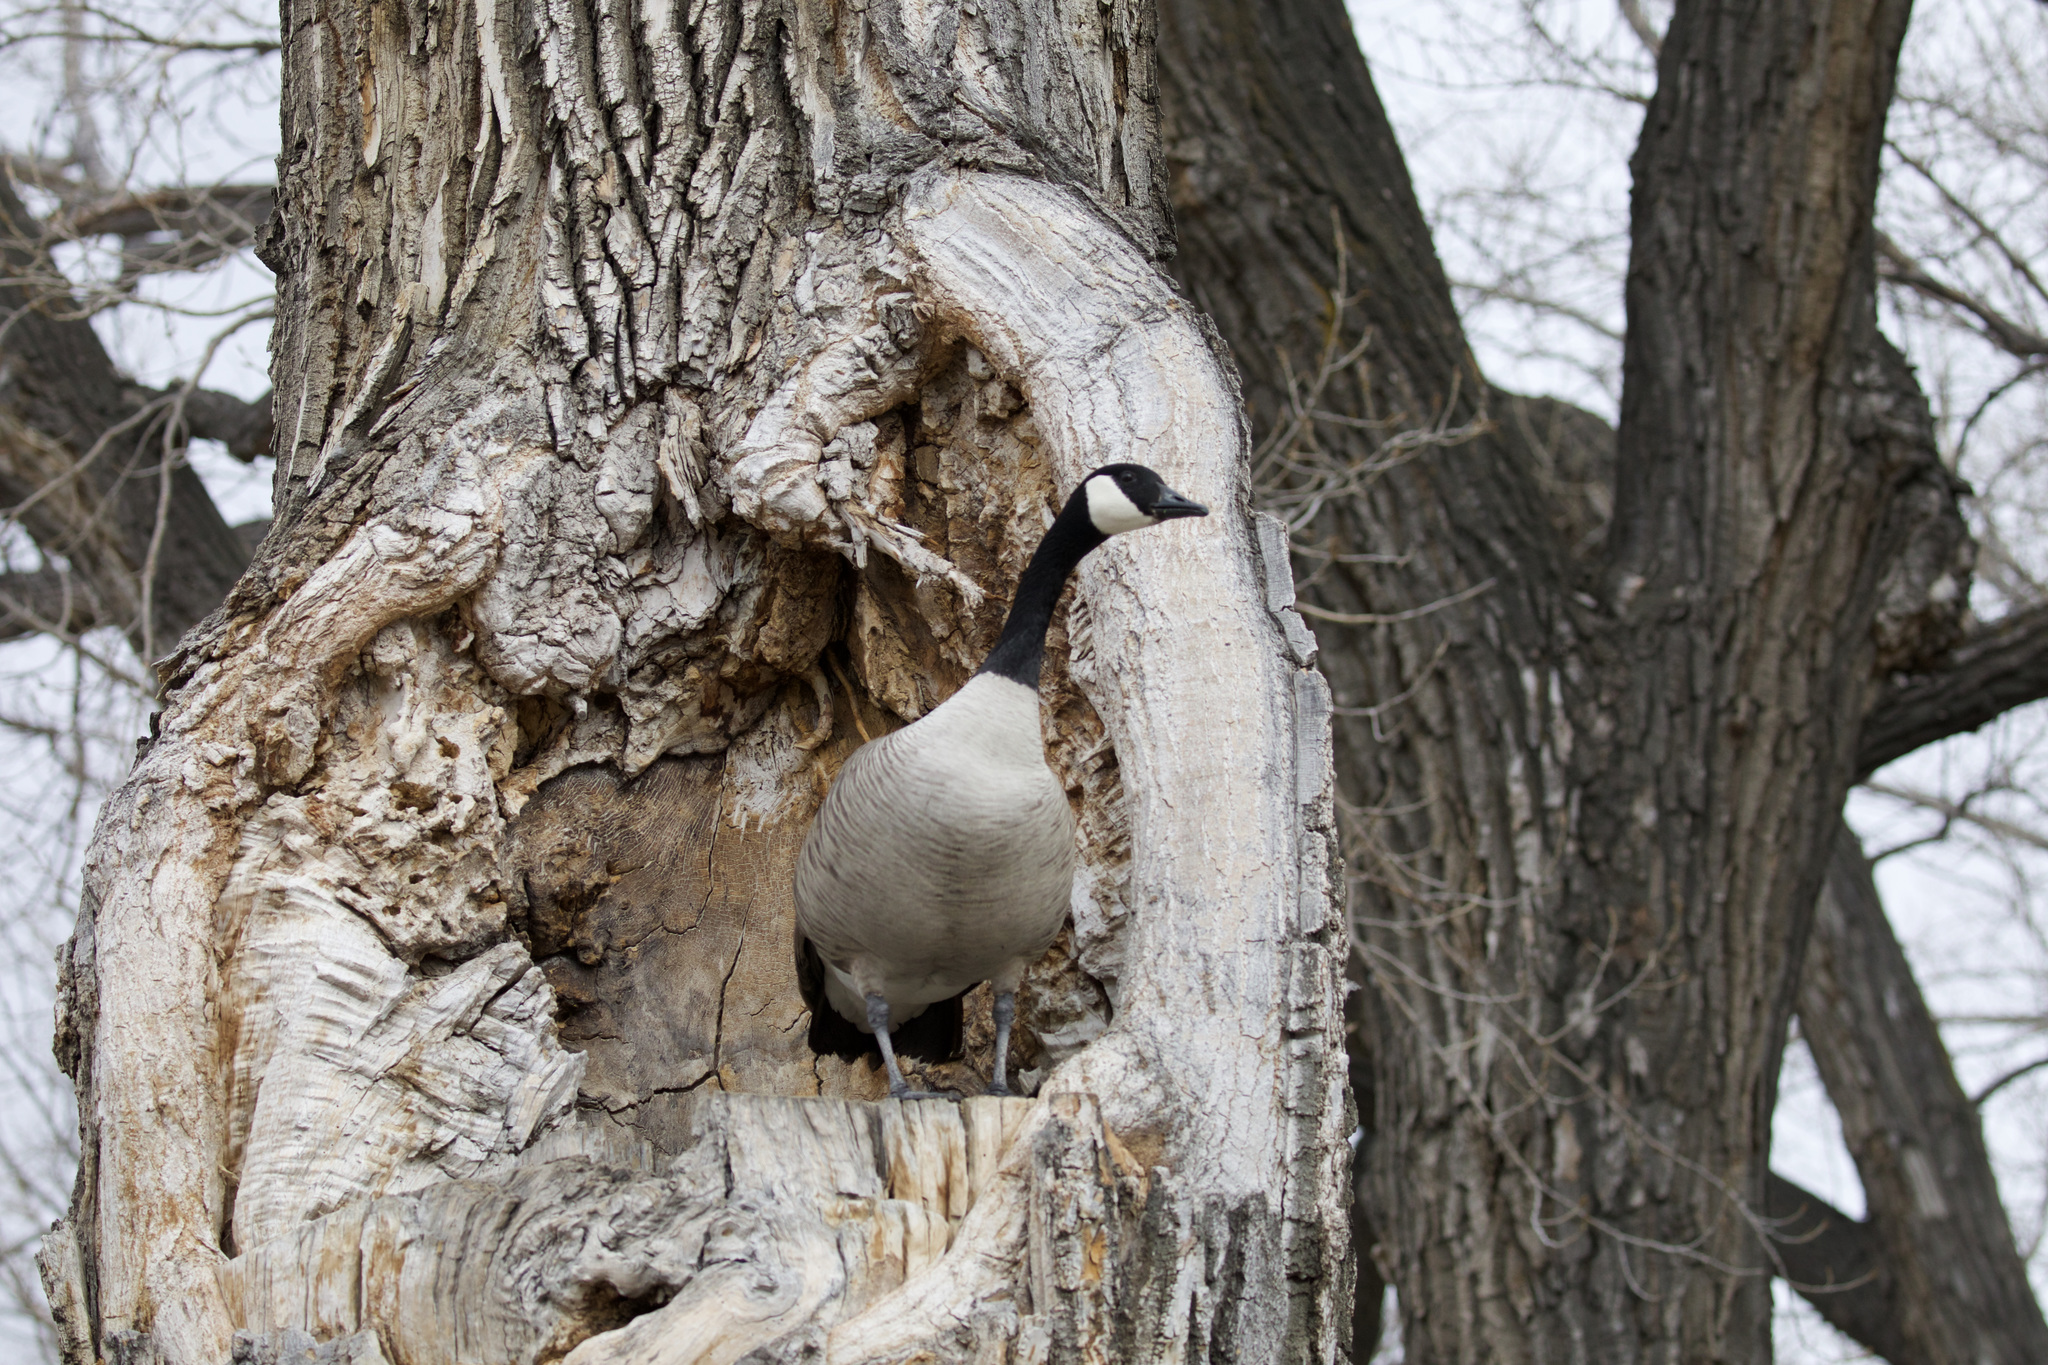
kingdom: Animalia
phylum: Chordata
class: Aves
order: Anseriformes
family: Anatidae
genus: Branta
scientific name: Branta canadensis
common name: Canada goose
